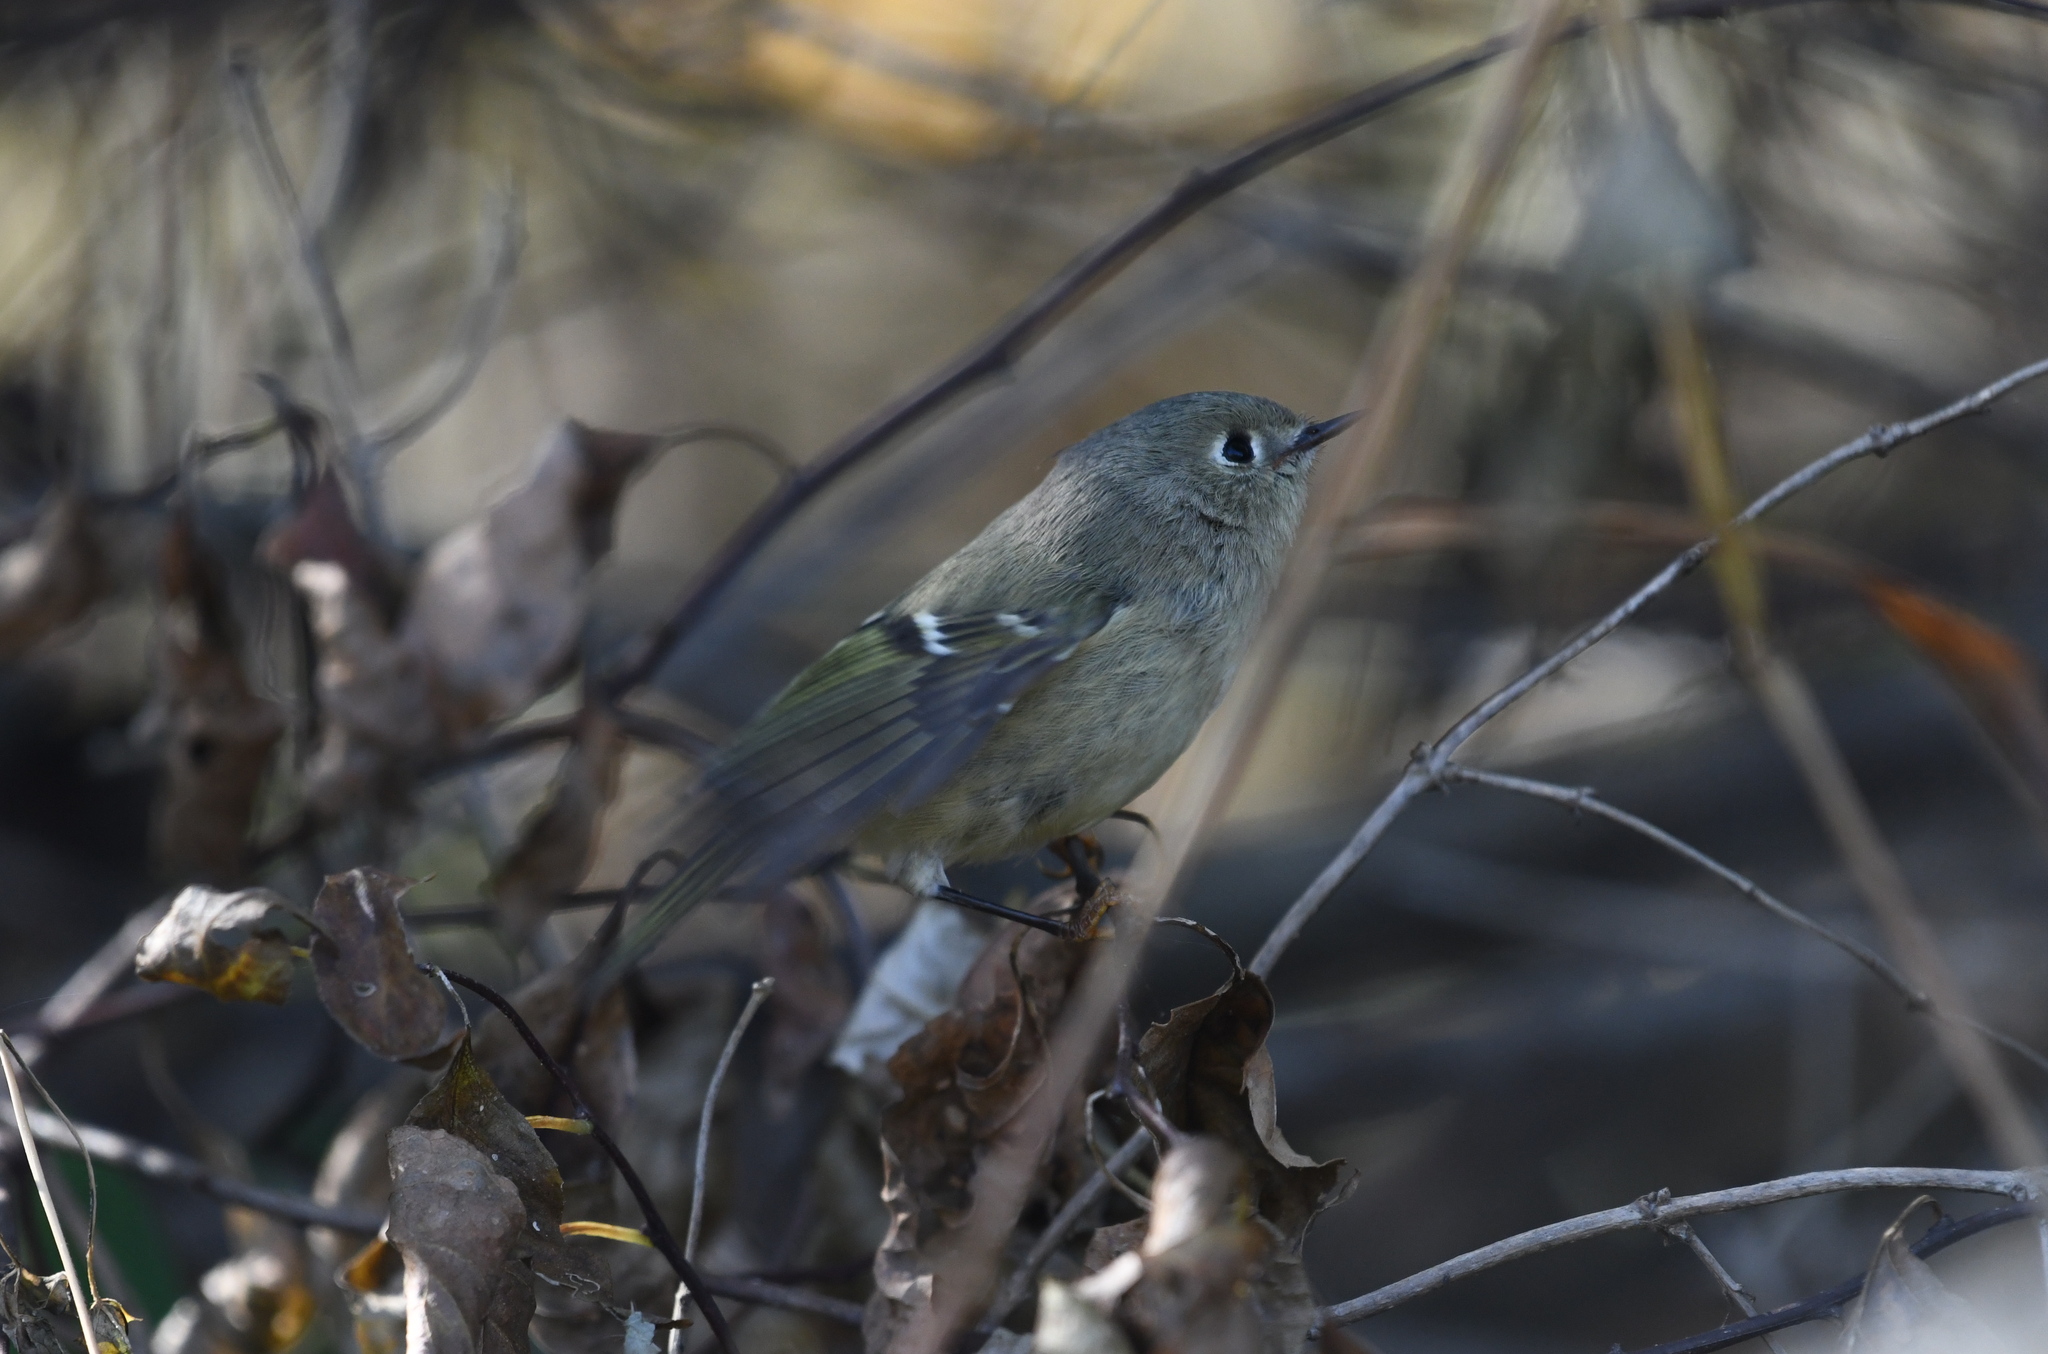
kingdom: Animalia
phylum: Chordata
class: Aves
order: Passeriformes
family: Regulidae
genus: Regulus
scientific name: Regulus calendula
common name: Ruby-crowned kinglet
